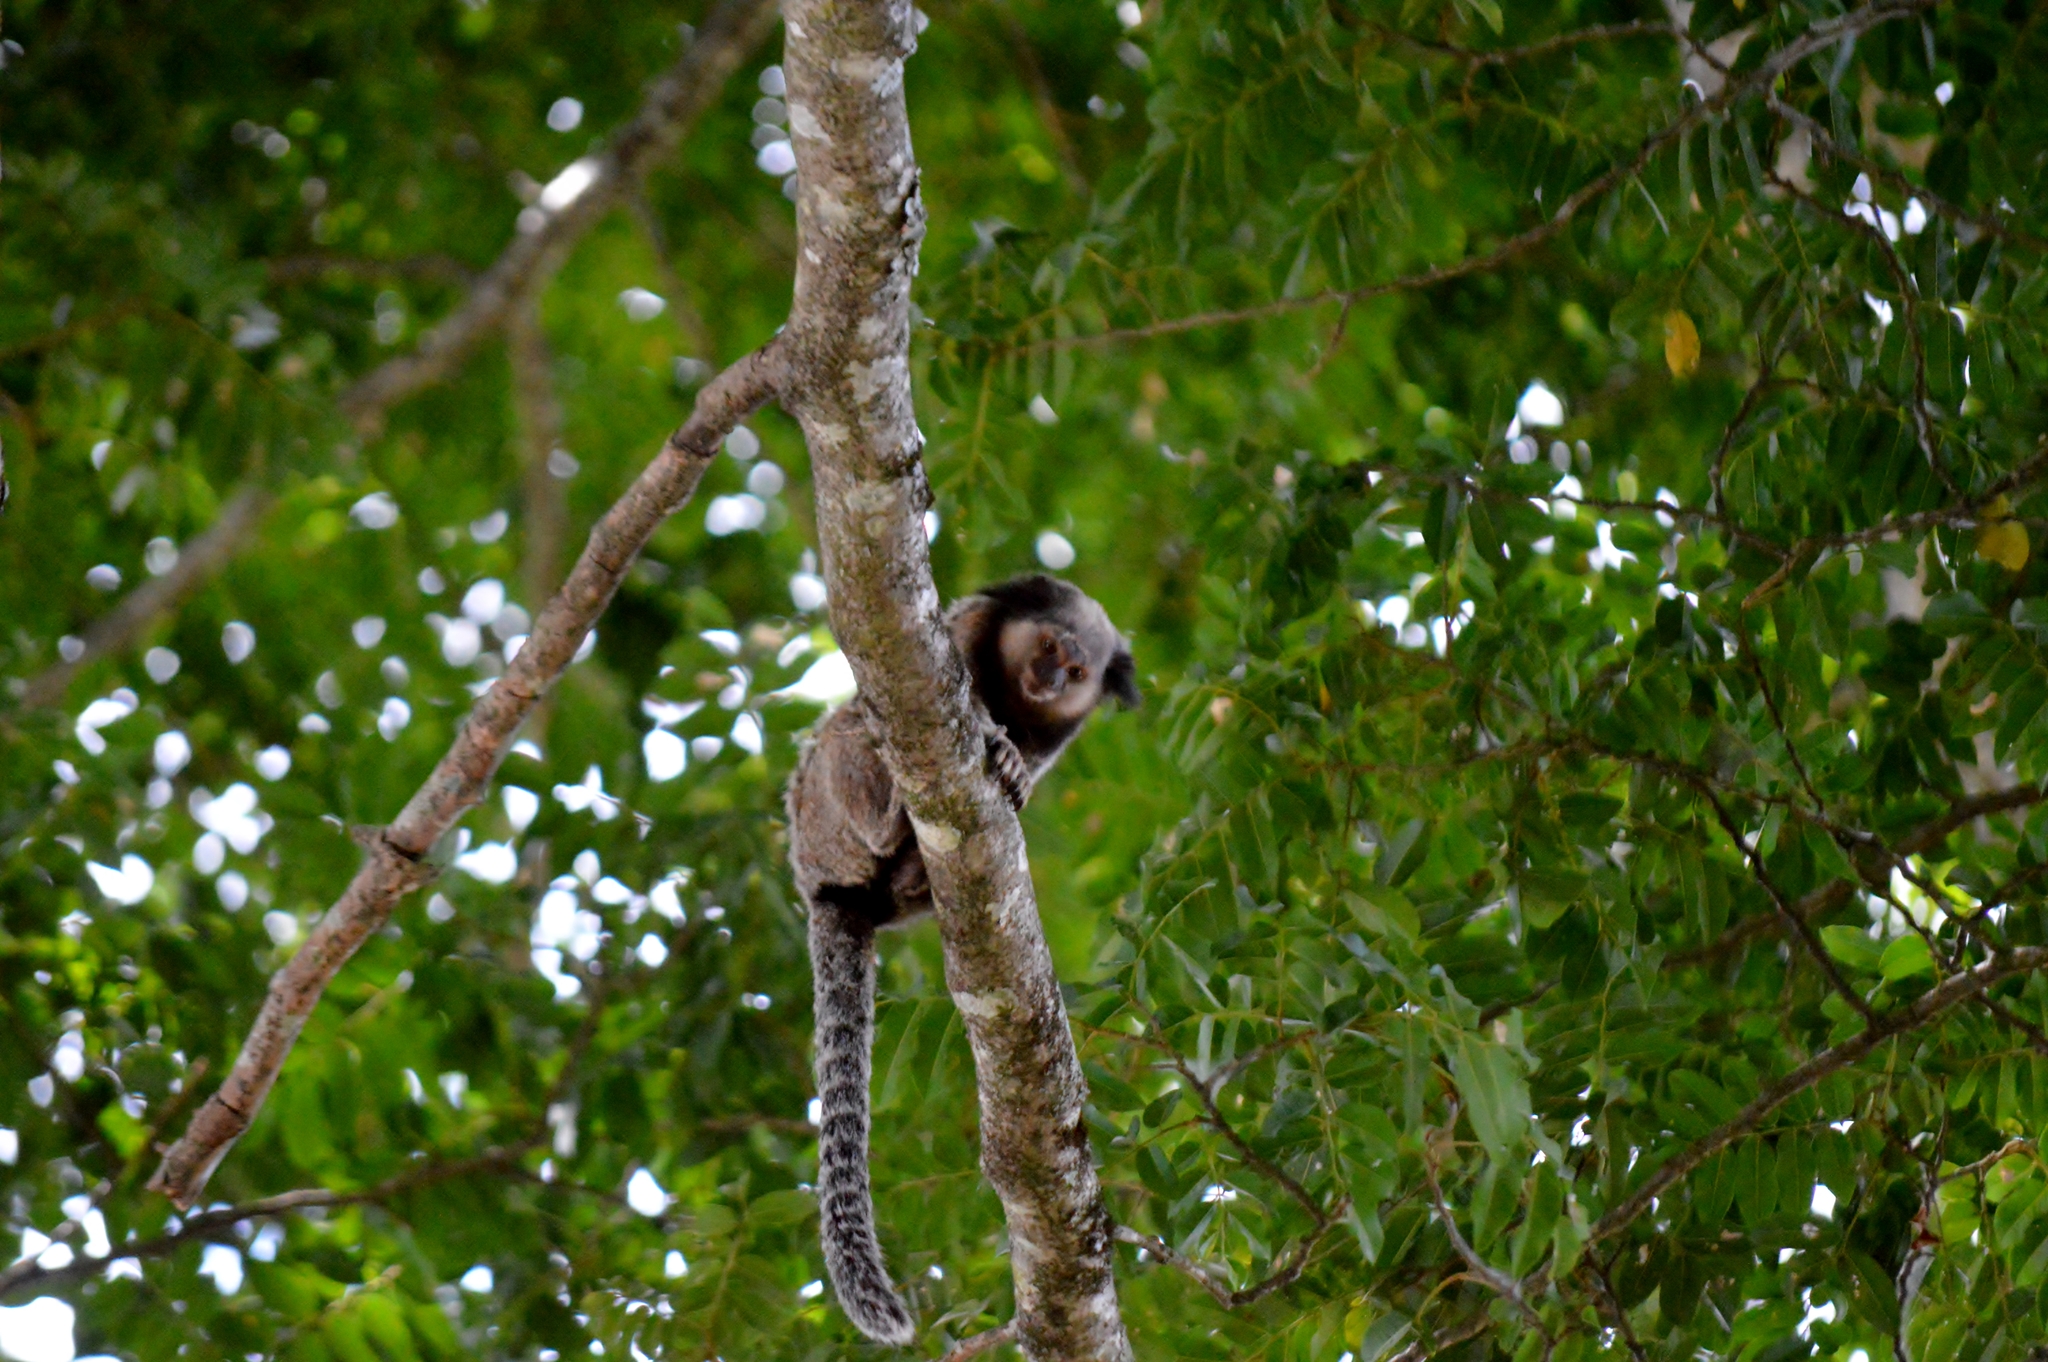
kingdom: Animalia
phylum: Chordata
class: Mammalia
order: Primates
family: Callitrichidae
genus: Callithrix
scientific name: Callithrix penicillata
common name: Black-tufted marmoset
